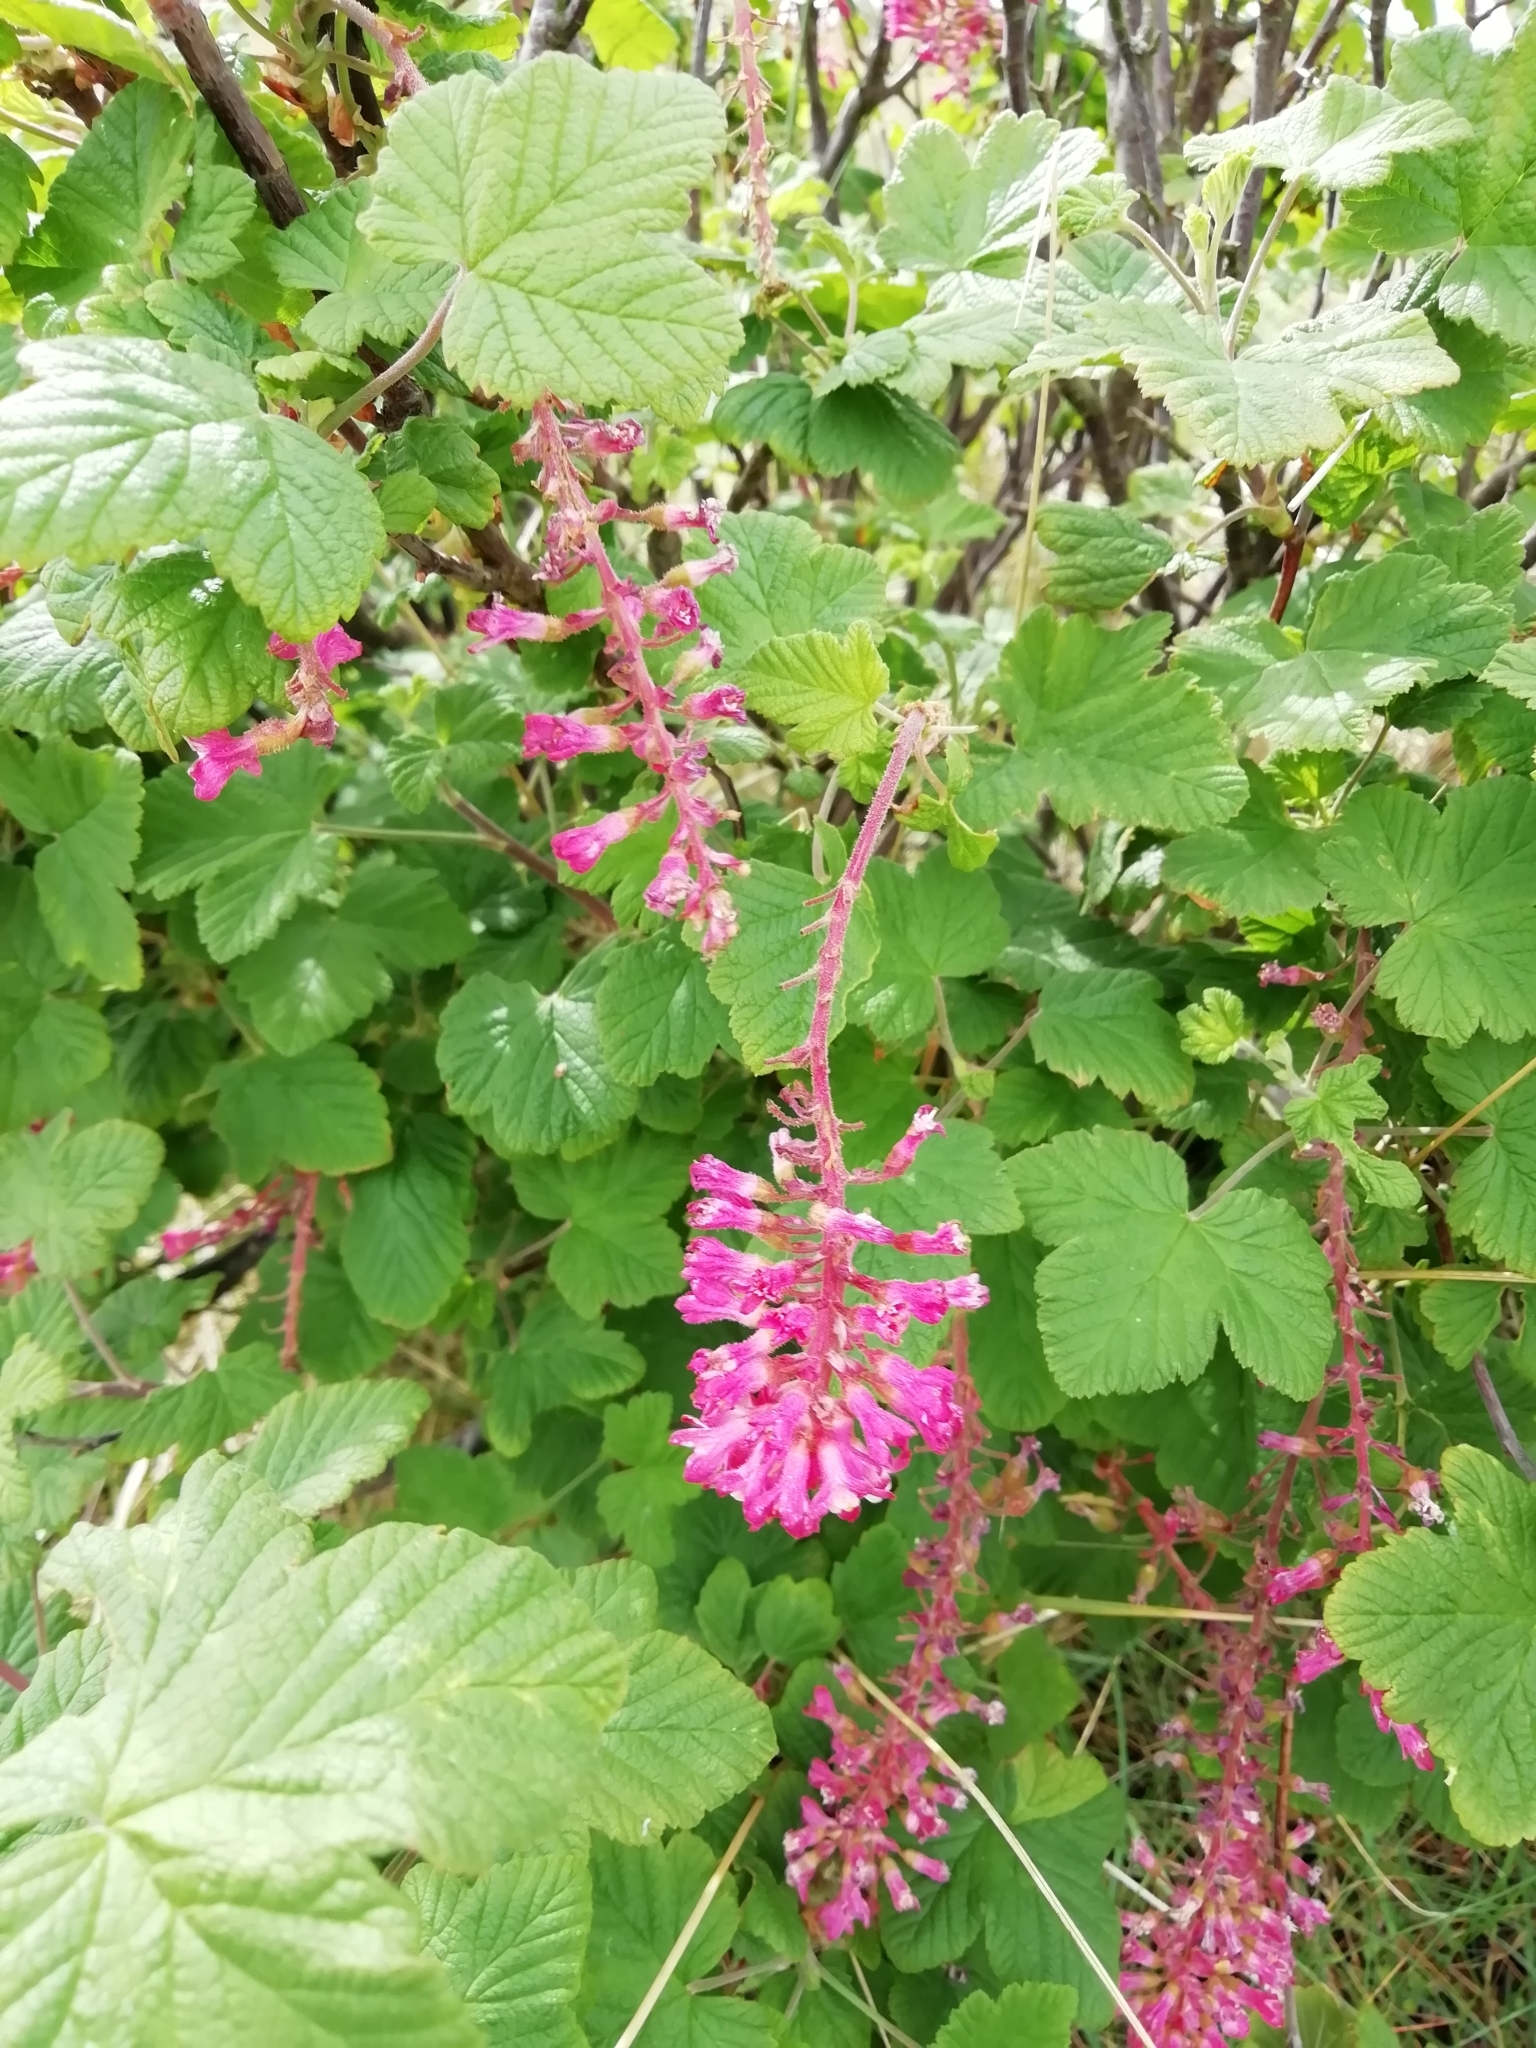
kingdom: Plantae
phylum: Tracheophyta
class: Magnoliopsida
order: Saxifragales
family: Grossulariaceae
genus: Ribes
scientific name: Ribes sanguineum
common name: Flowering currant
